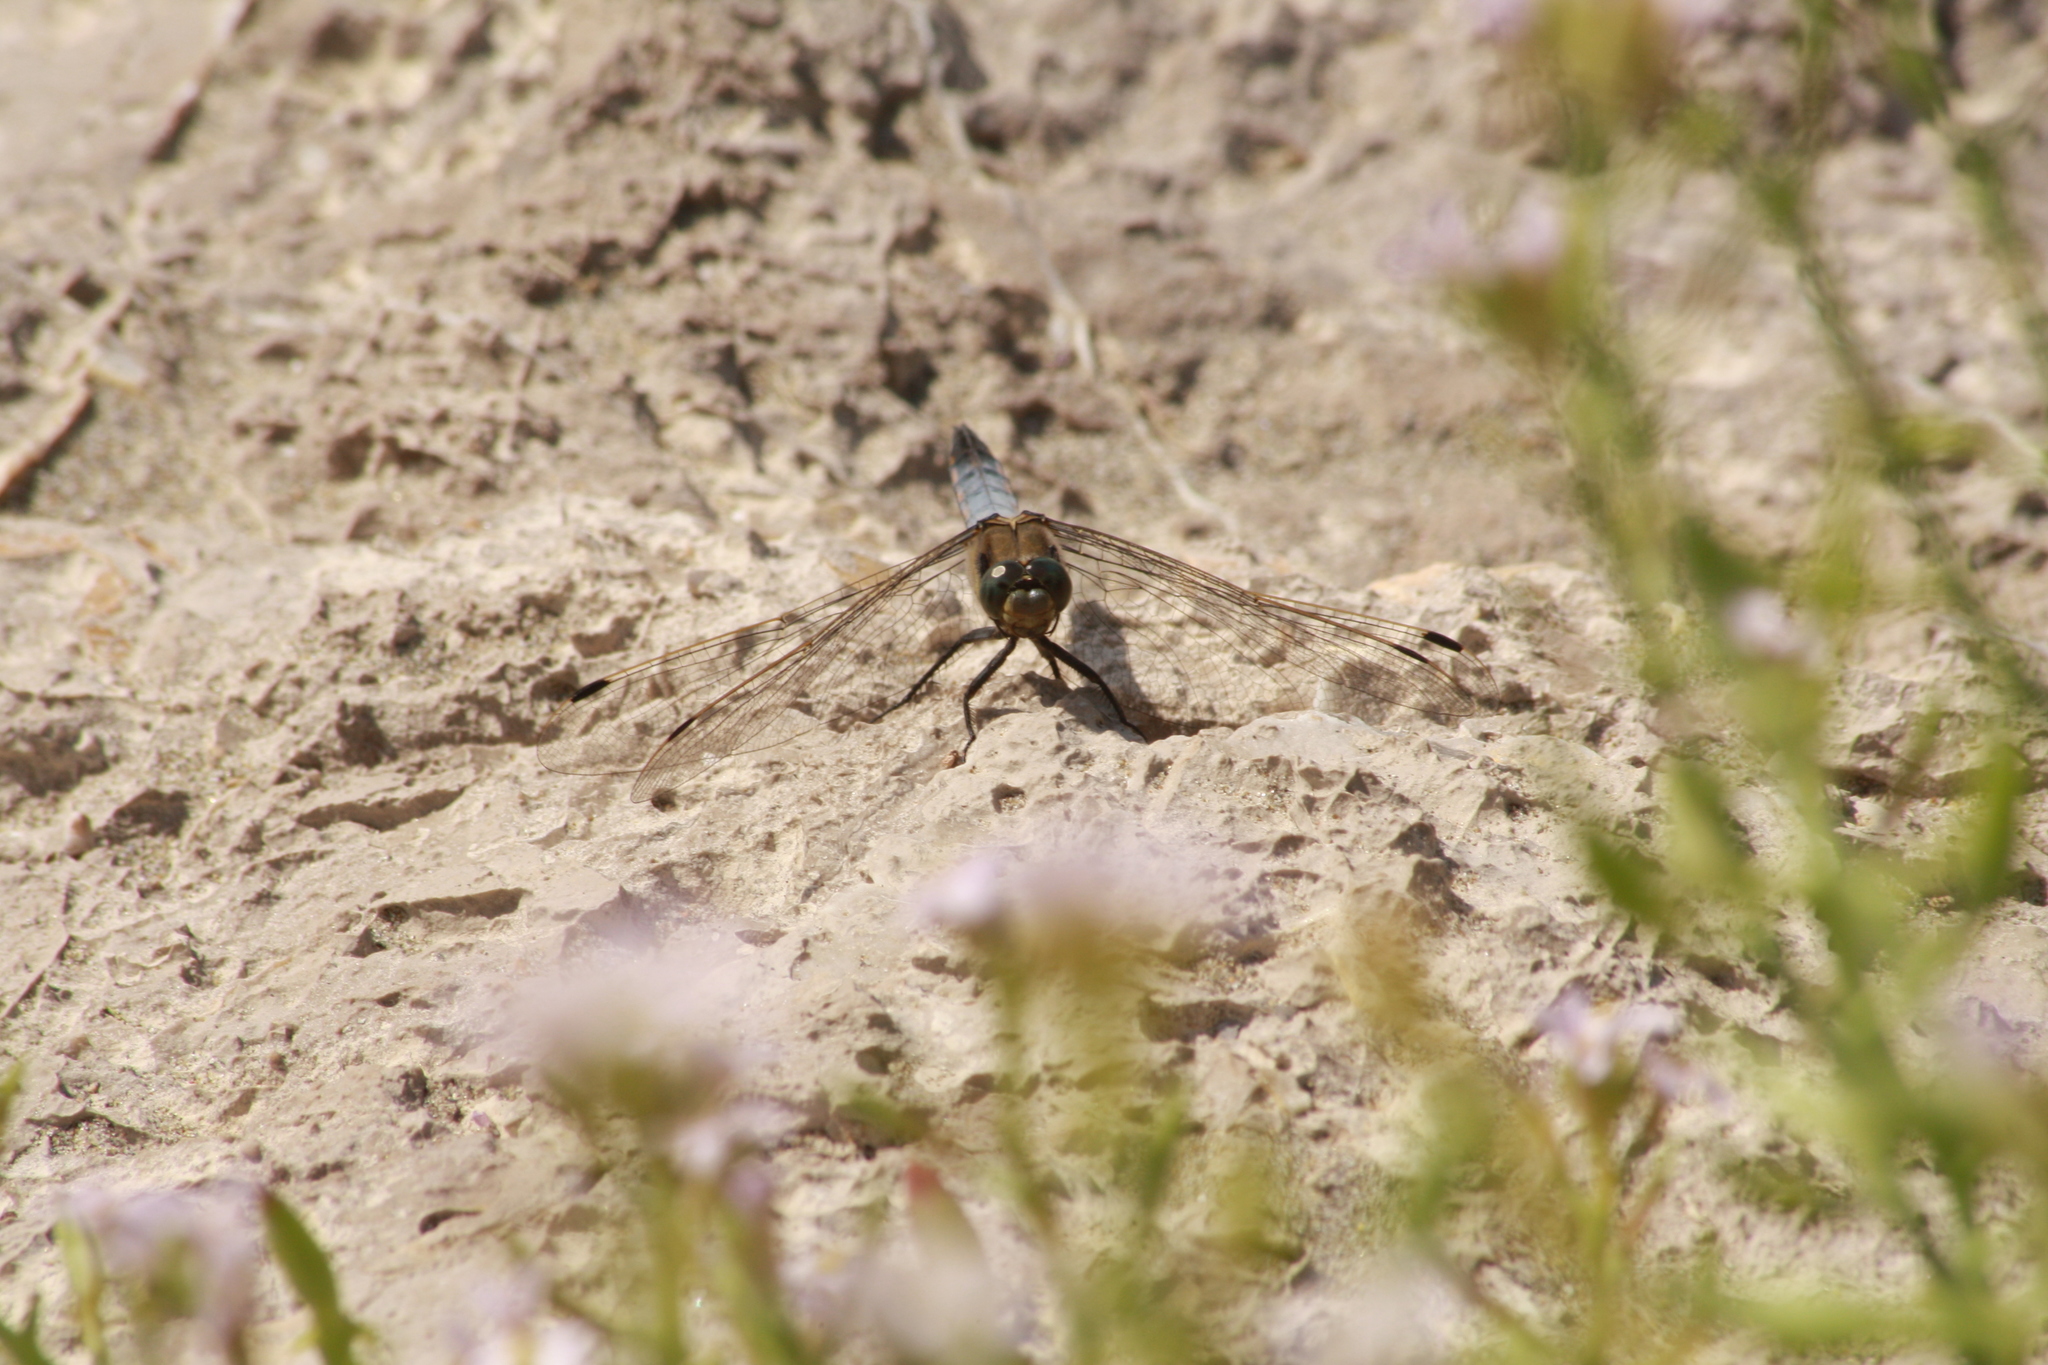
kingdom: Animalia
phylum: Arthropoda
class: Insecta
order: Odonata
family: Libellulidae
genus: Orthetrum
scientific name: Orthetrum cancellatum
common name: Black-tailed skimmer
